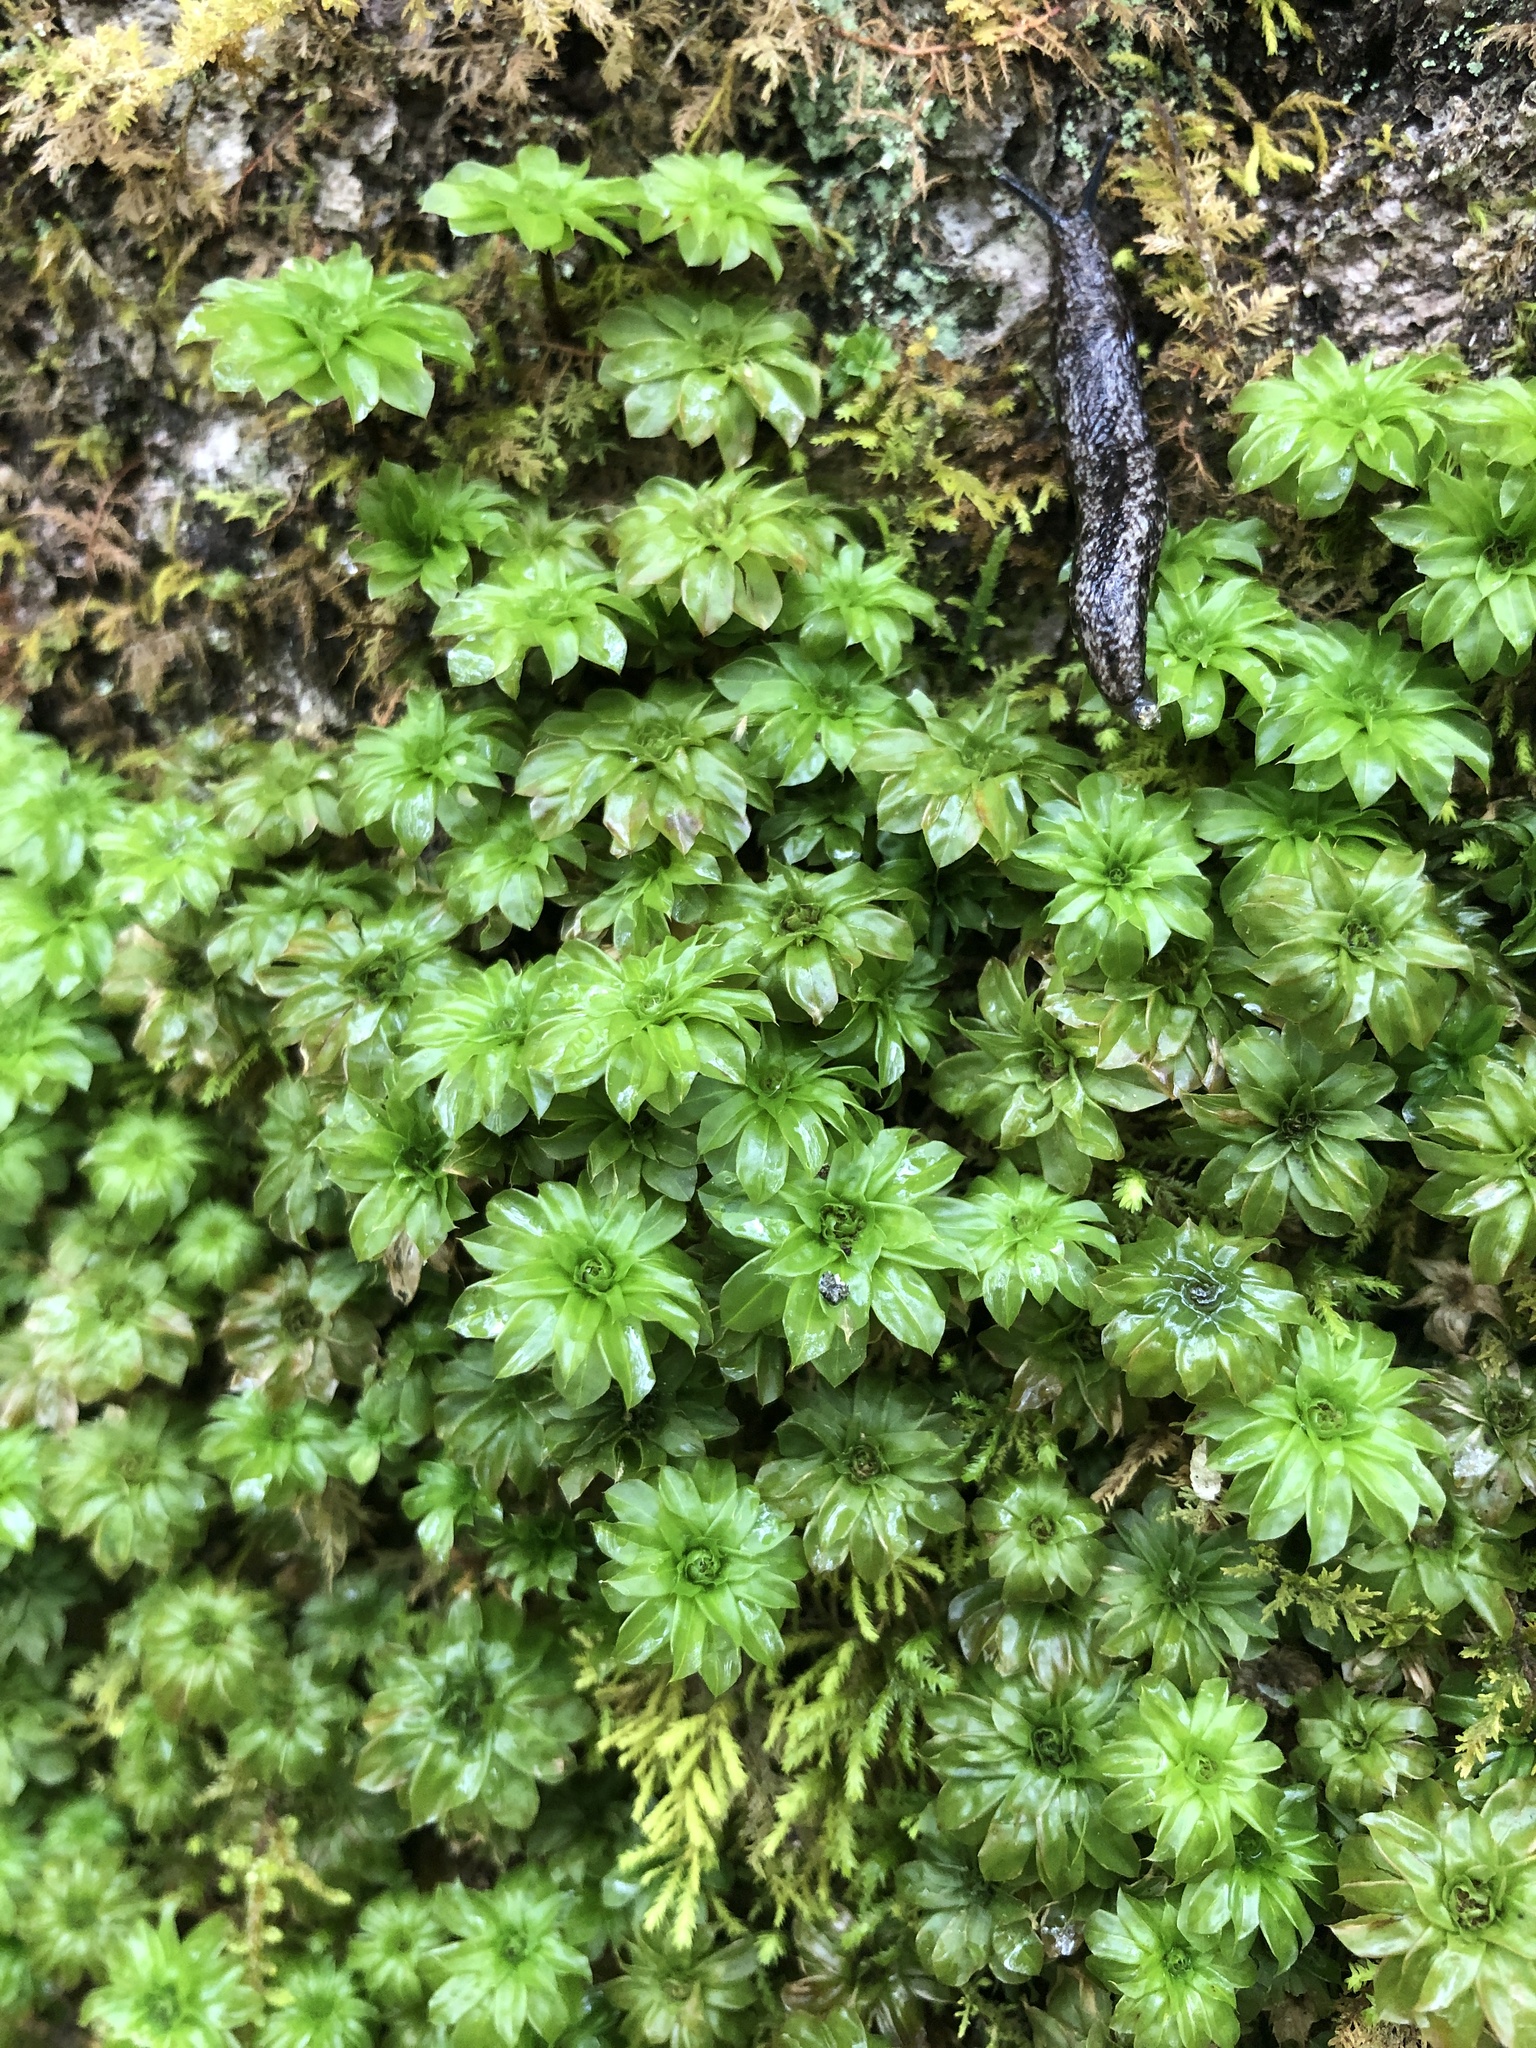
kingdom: Plantae
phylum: Bryophyta
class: Bryopsida
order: Bryales
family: Bryaceae
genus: Rhodobryum
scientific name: Rhodobryum ontariense
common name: Ontario rhodobryum moss
